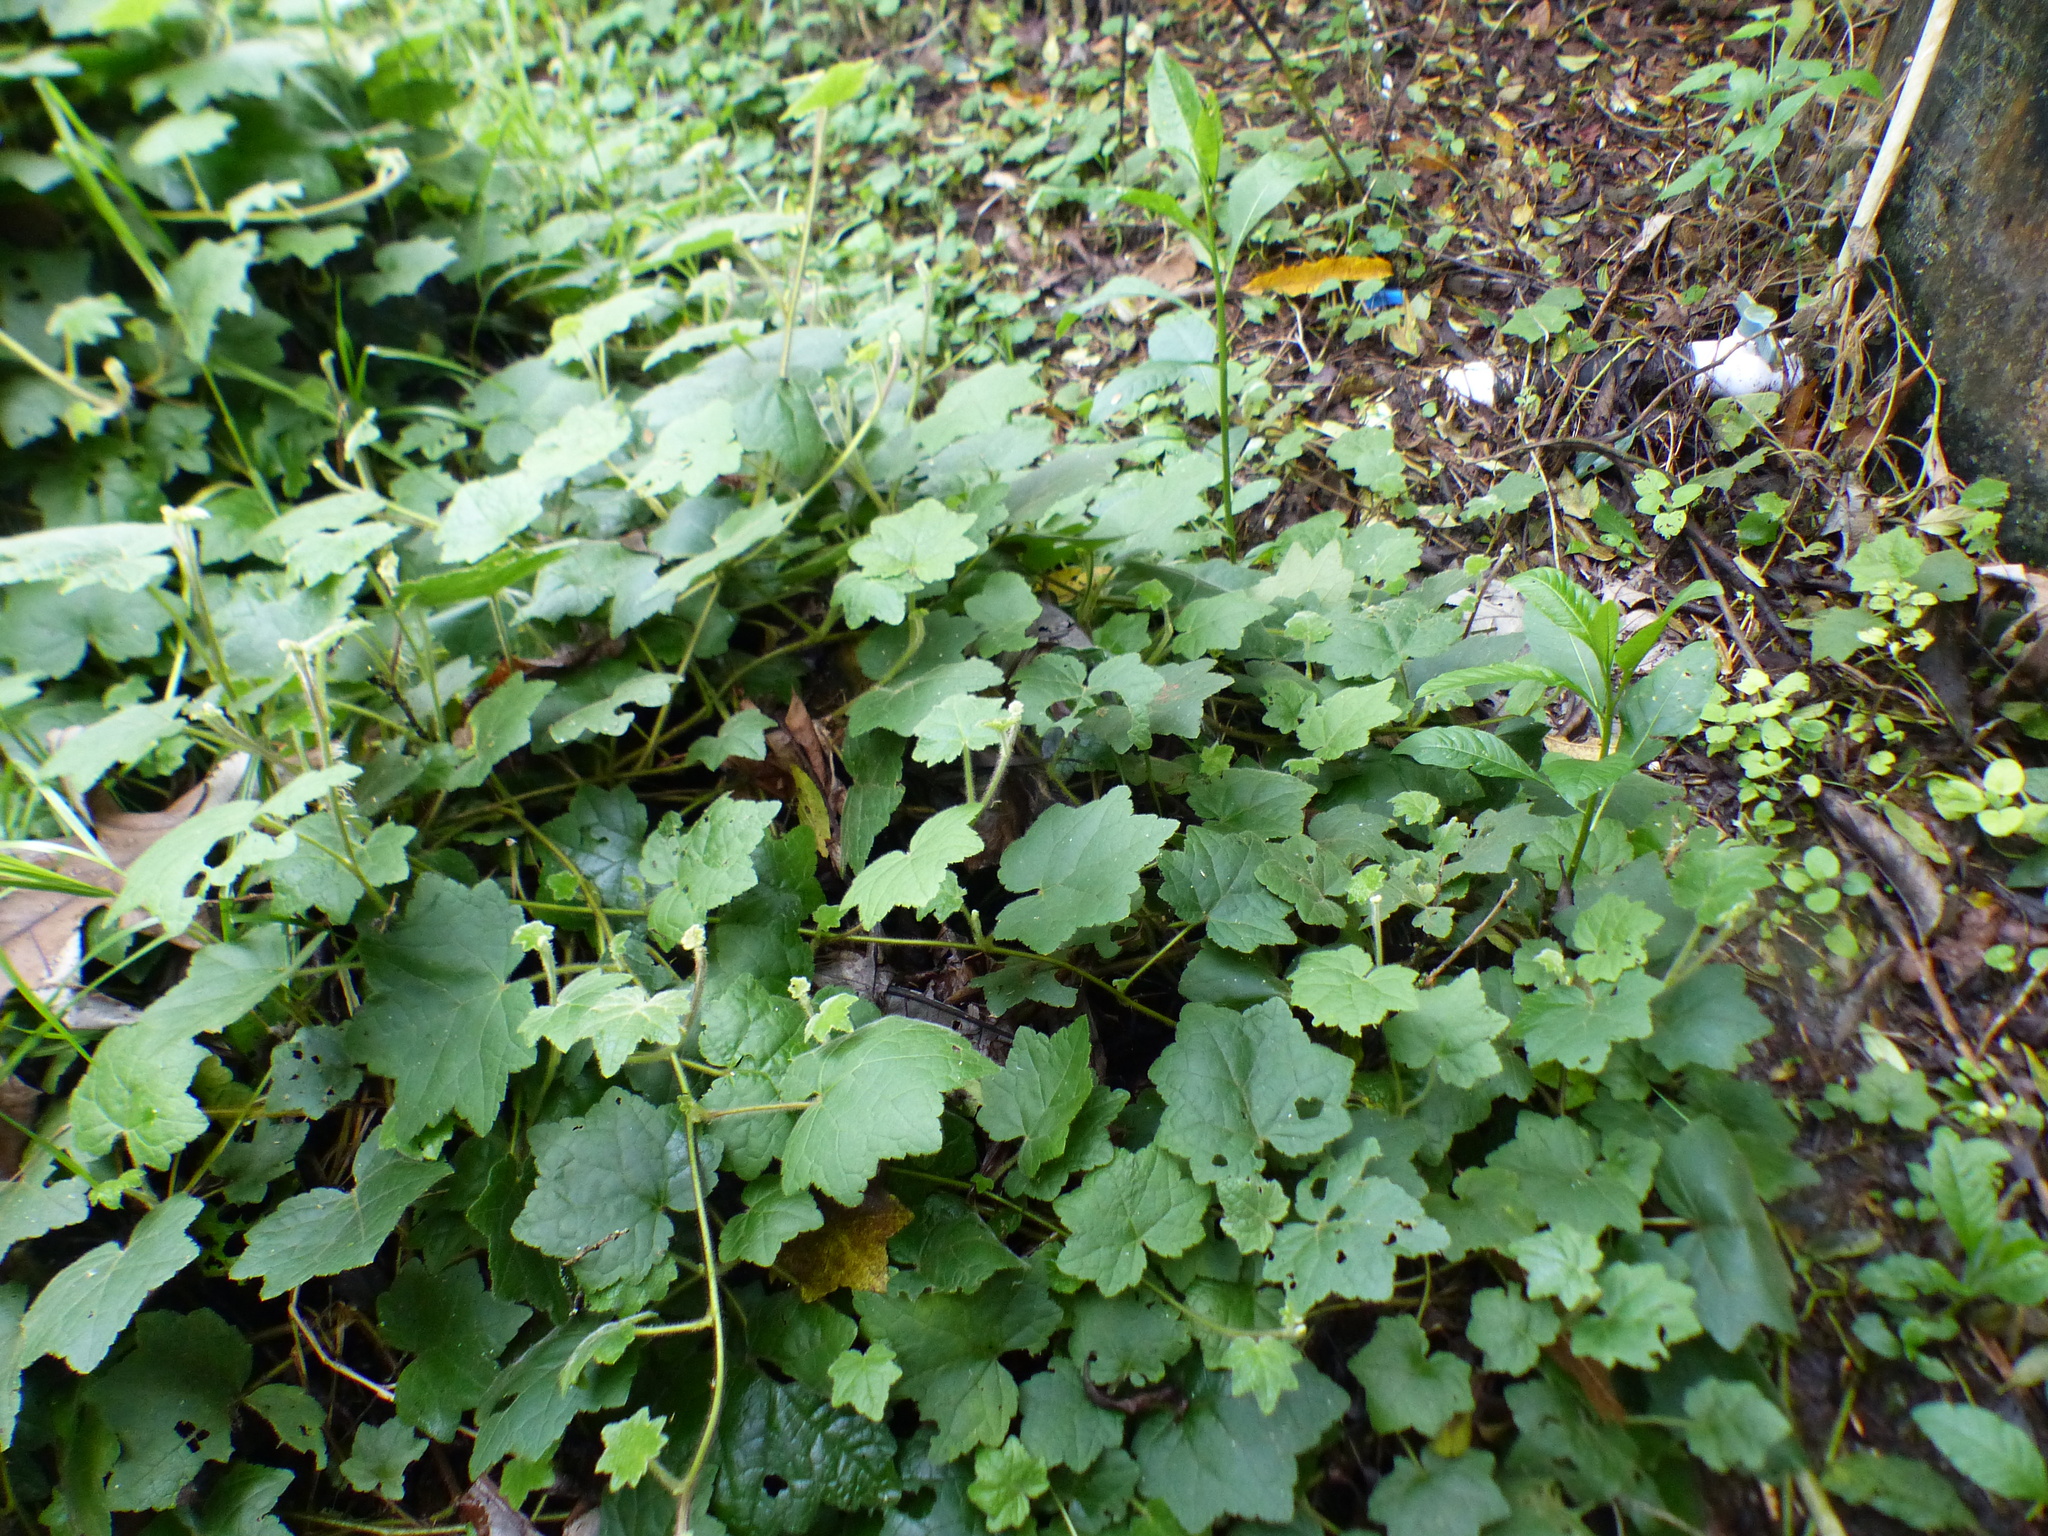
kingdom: Plantae
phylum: Tracheophyta
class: Magnoliopsida
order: Asterales
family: Asteraceae
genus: Jungia
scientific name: Jungia paniculata
